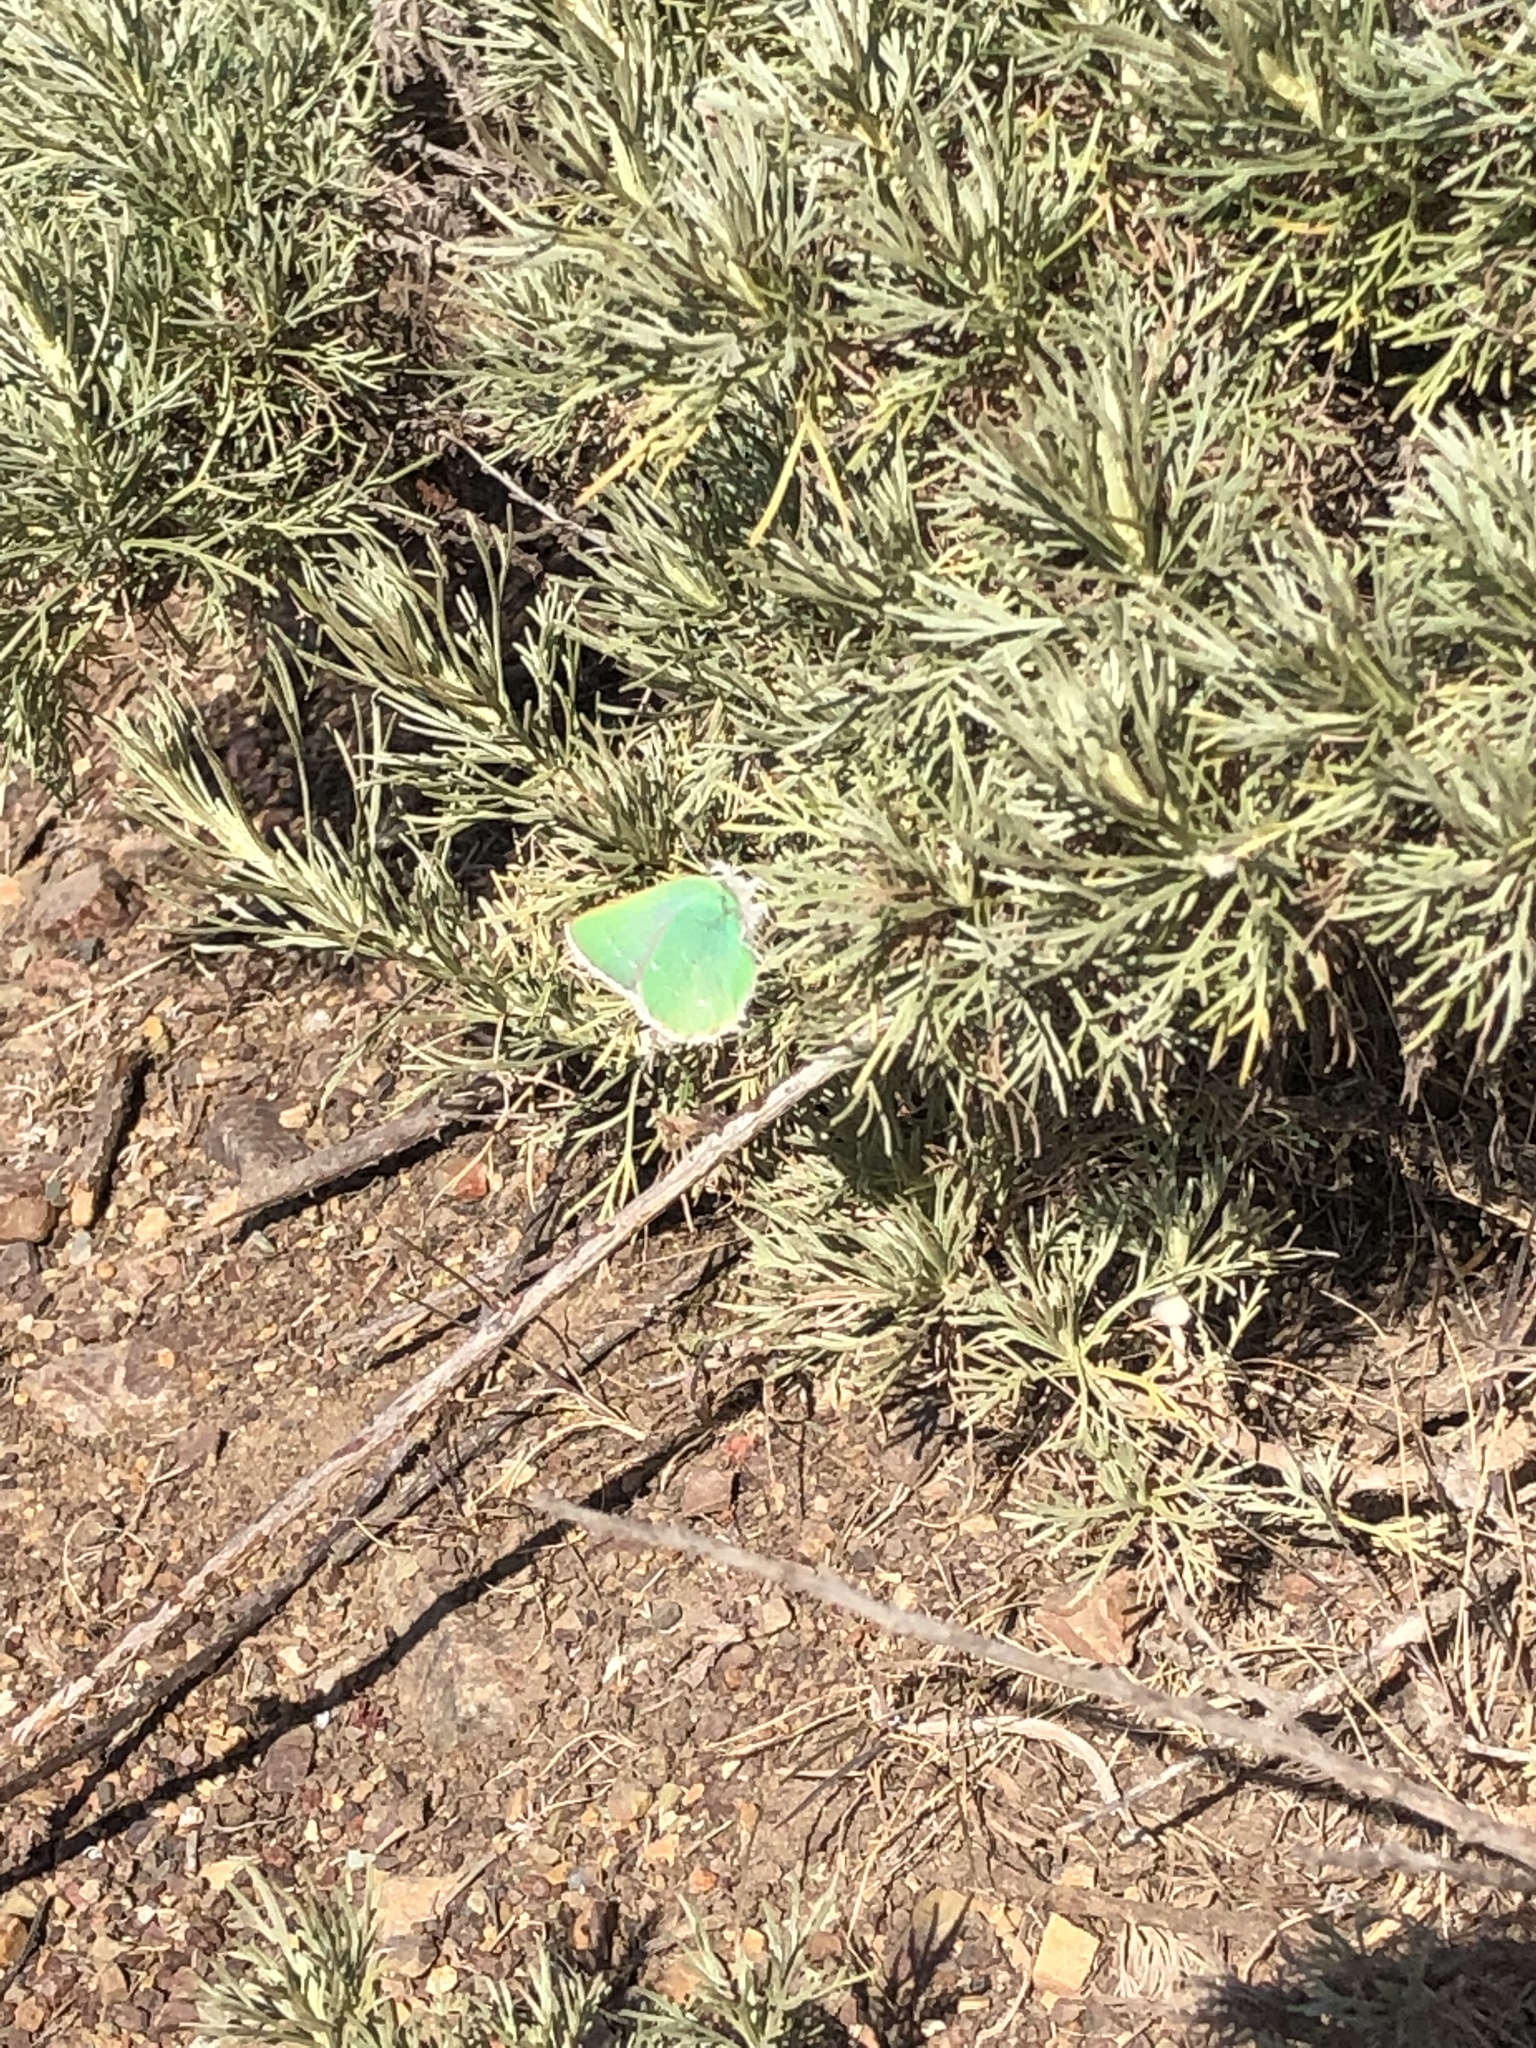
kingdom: Animalia
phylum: Arthropoda
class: Insecta
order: Lepidoptera
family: Lycaenidae
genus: Callophrys
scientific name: Callophrys viridis
